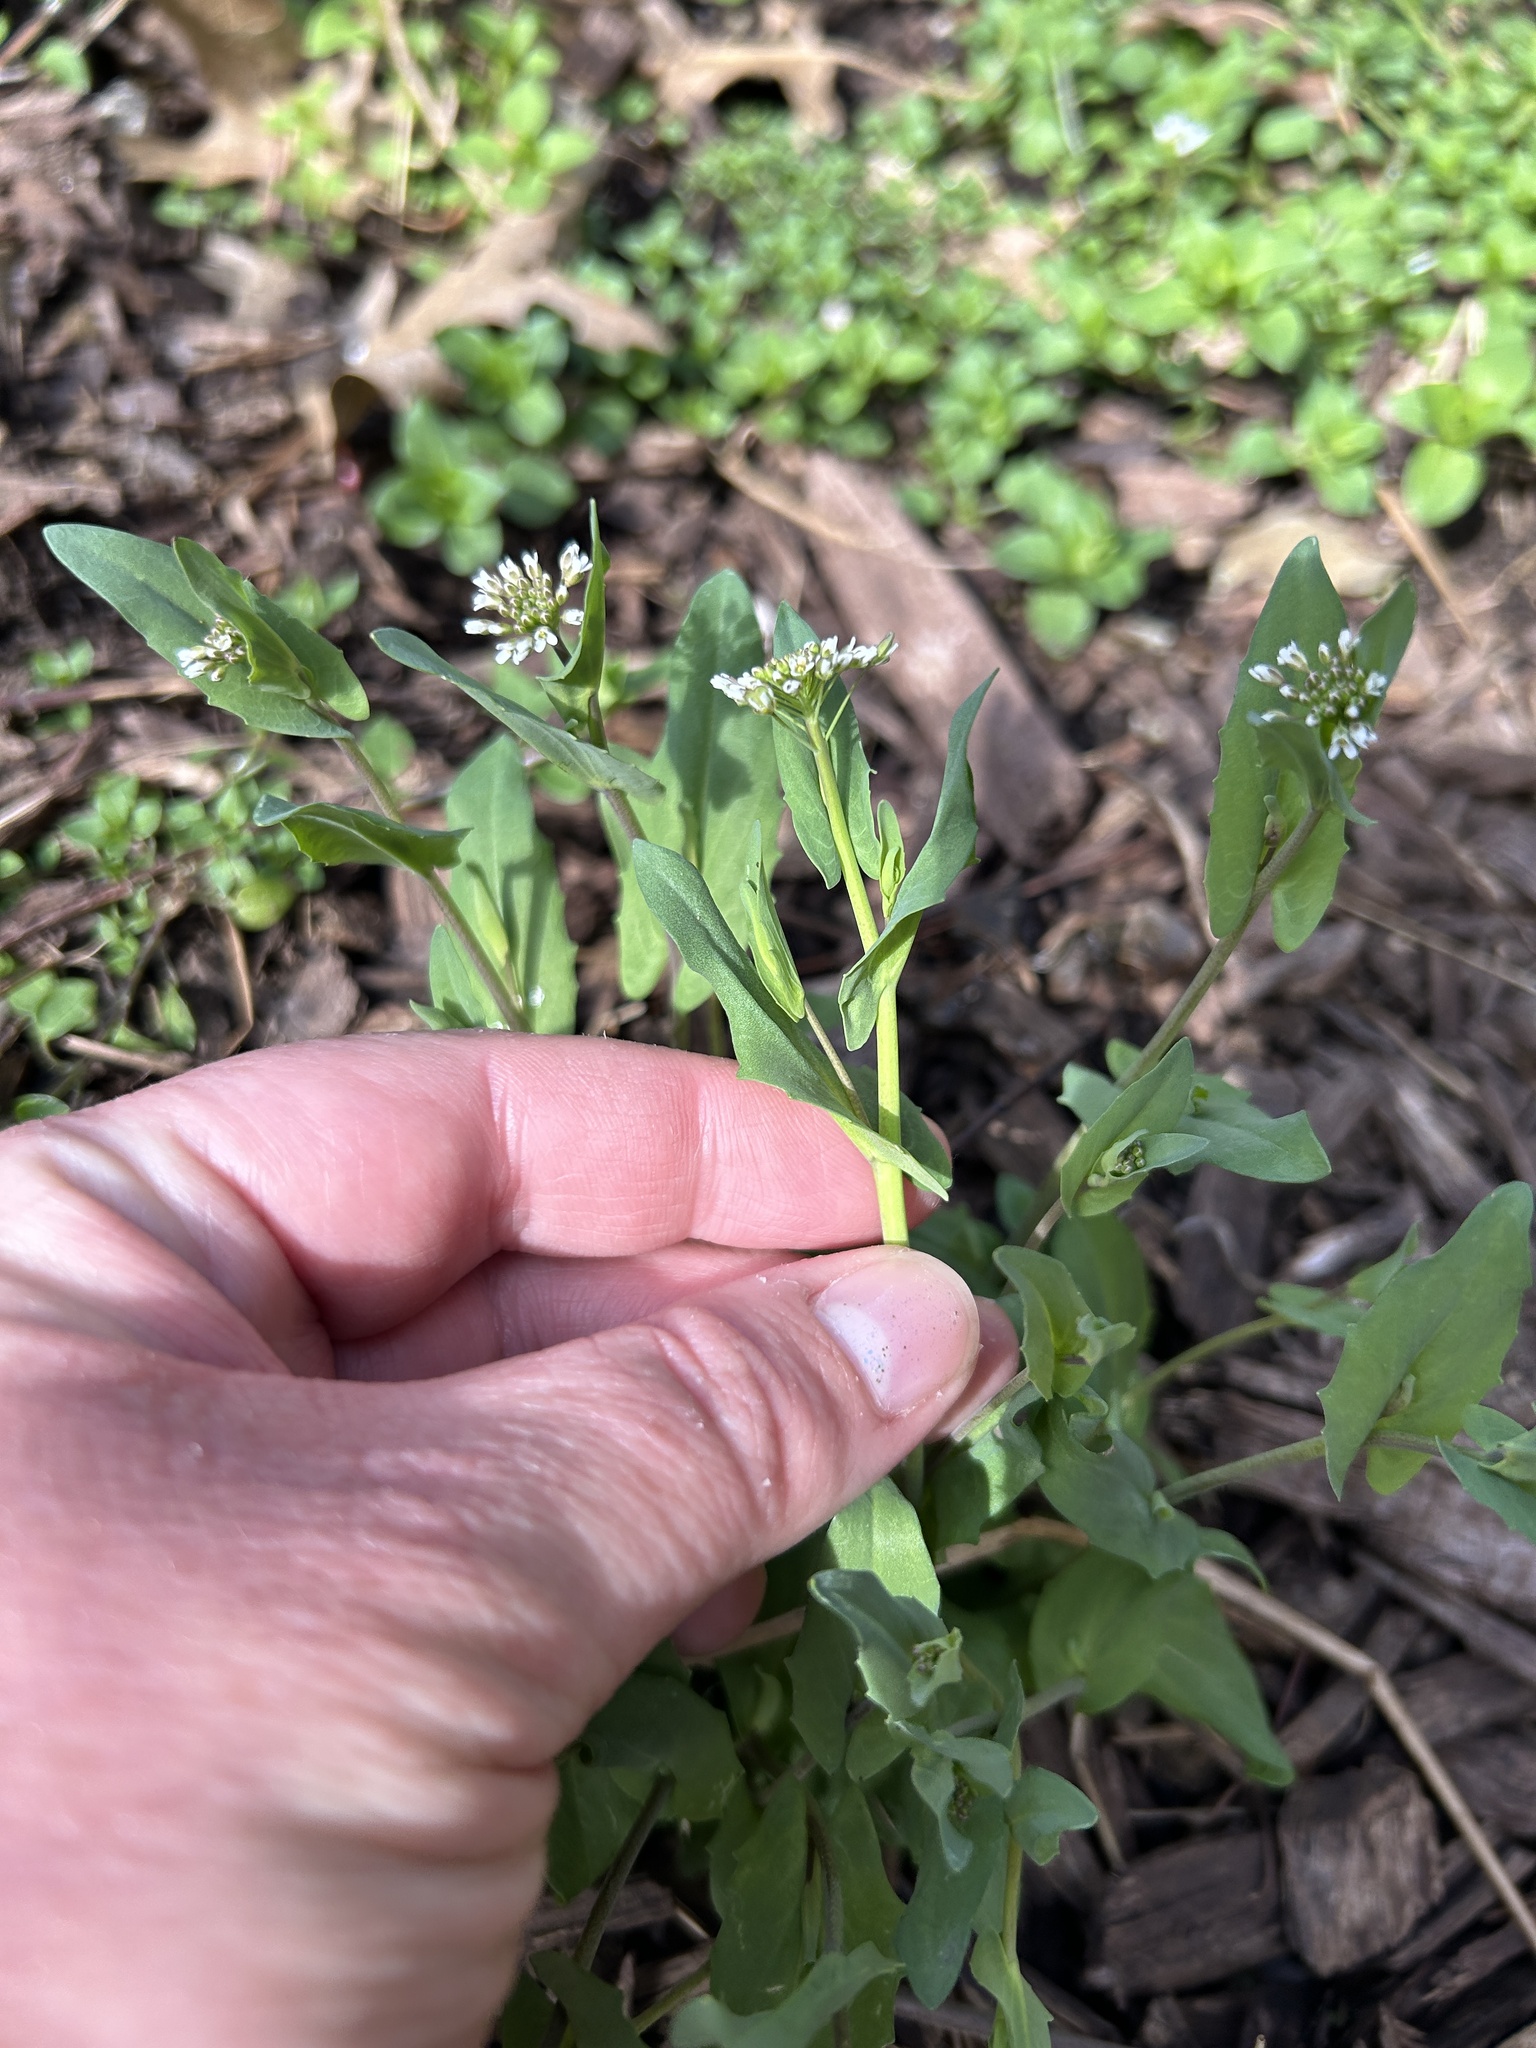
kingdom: Plantae
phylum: Tracheophyta
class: Magnoliopsida
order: Brassicales
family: Brassicaceae
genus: Noccaea
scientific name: Noccaea perfoliata
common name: Perfoliate pennycress
